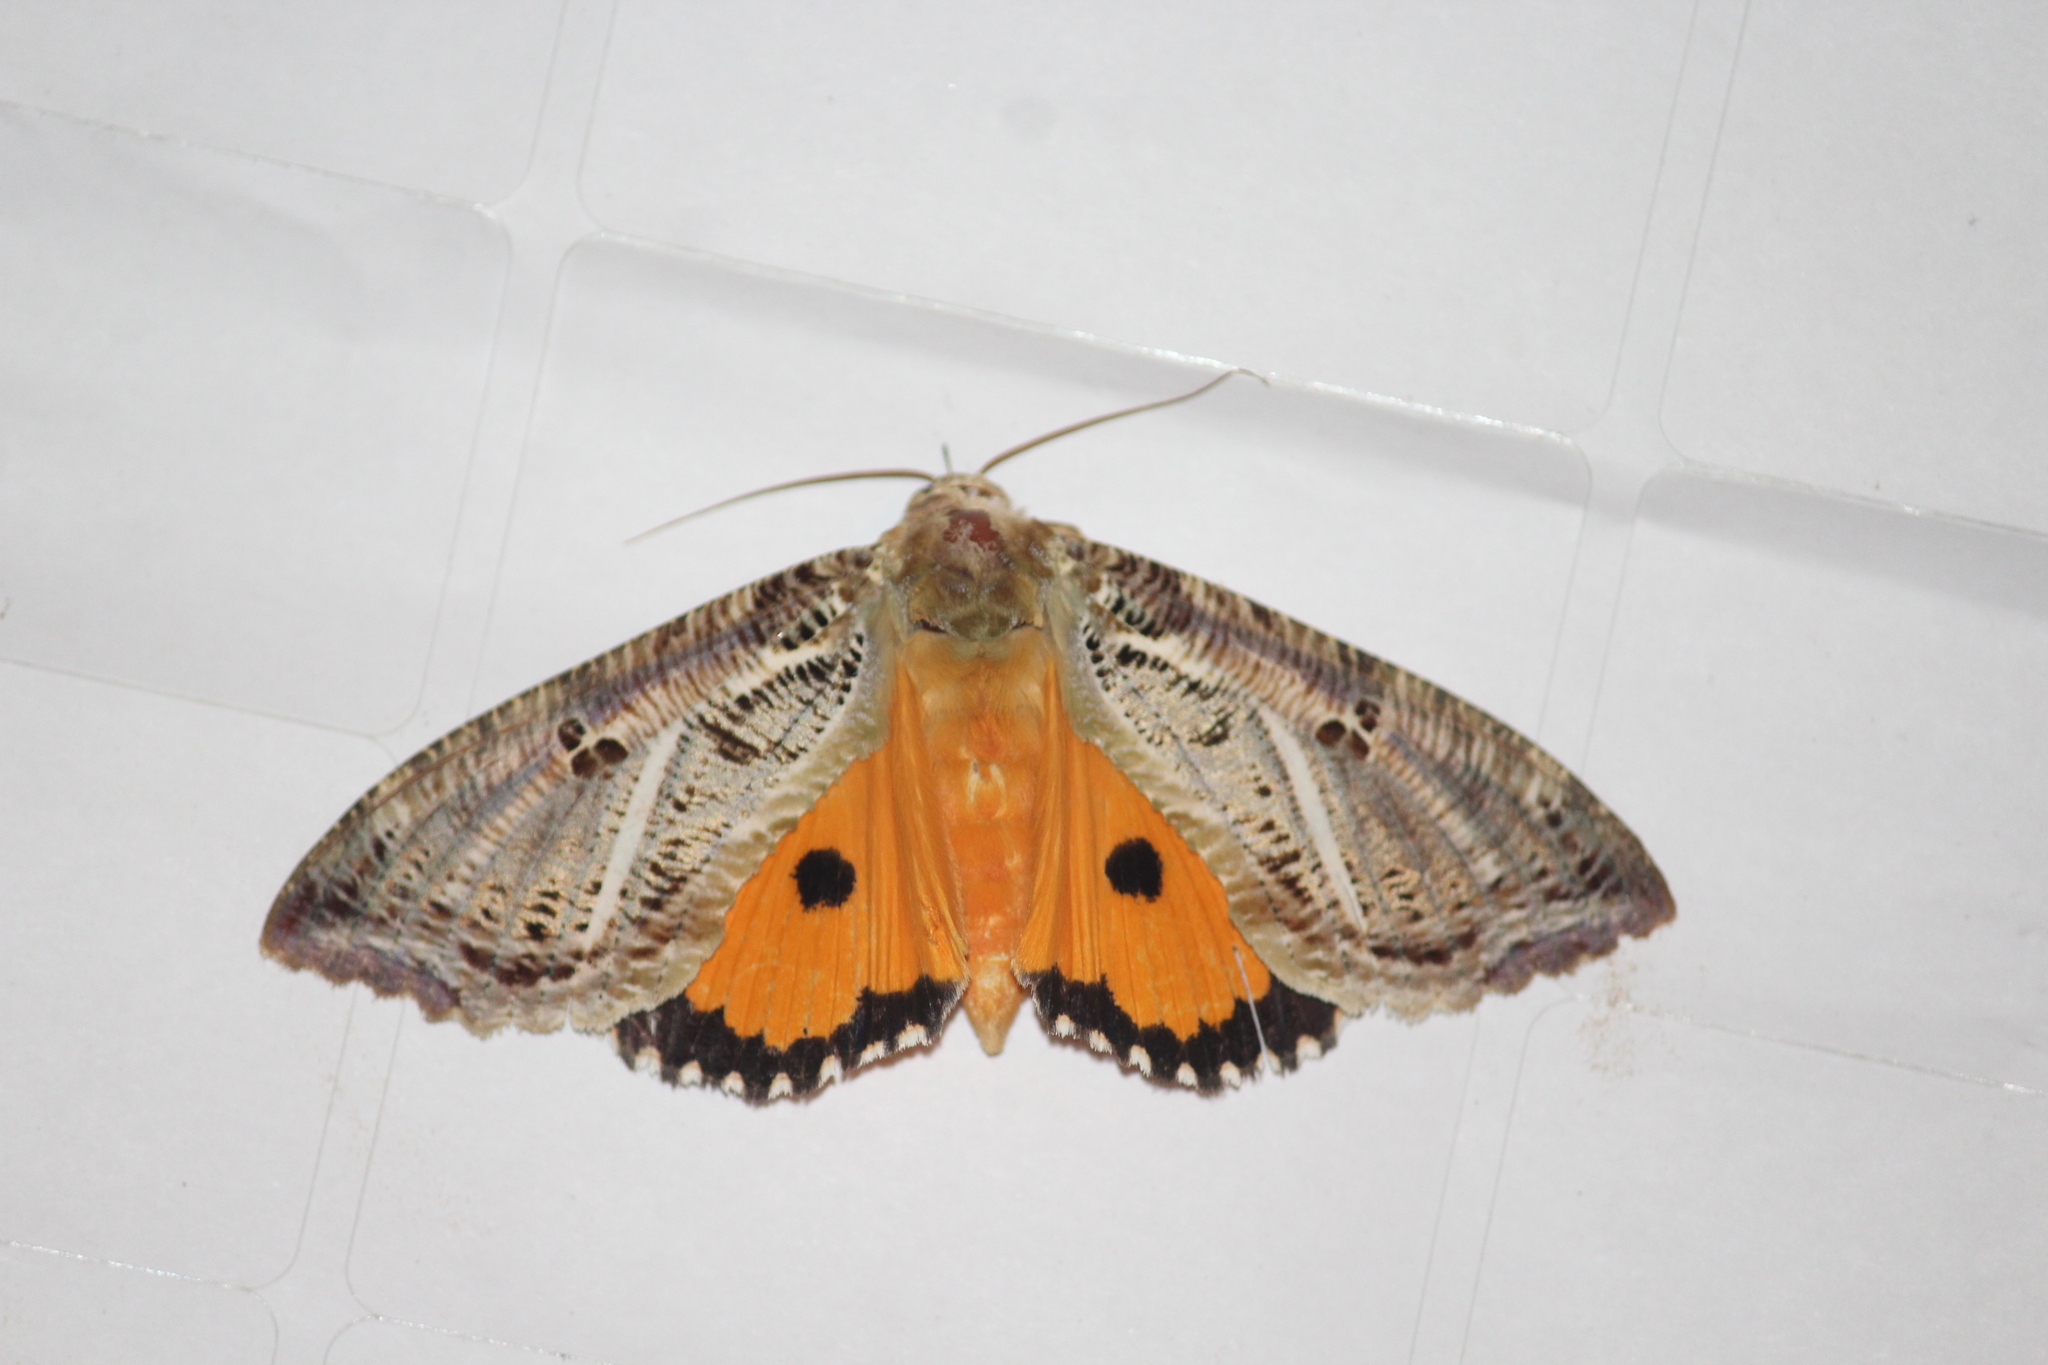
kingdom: Animalia
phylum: Arthropoda
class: Insecta
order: Lepidoptera
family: Erebidae
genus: Eudocima
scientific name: Eudocima materna
